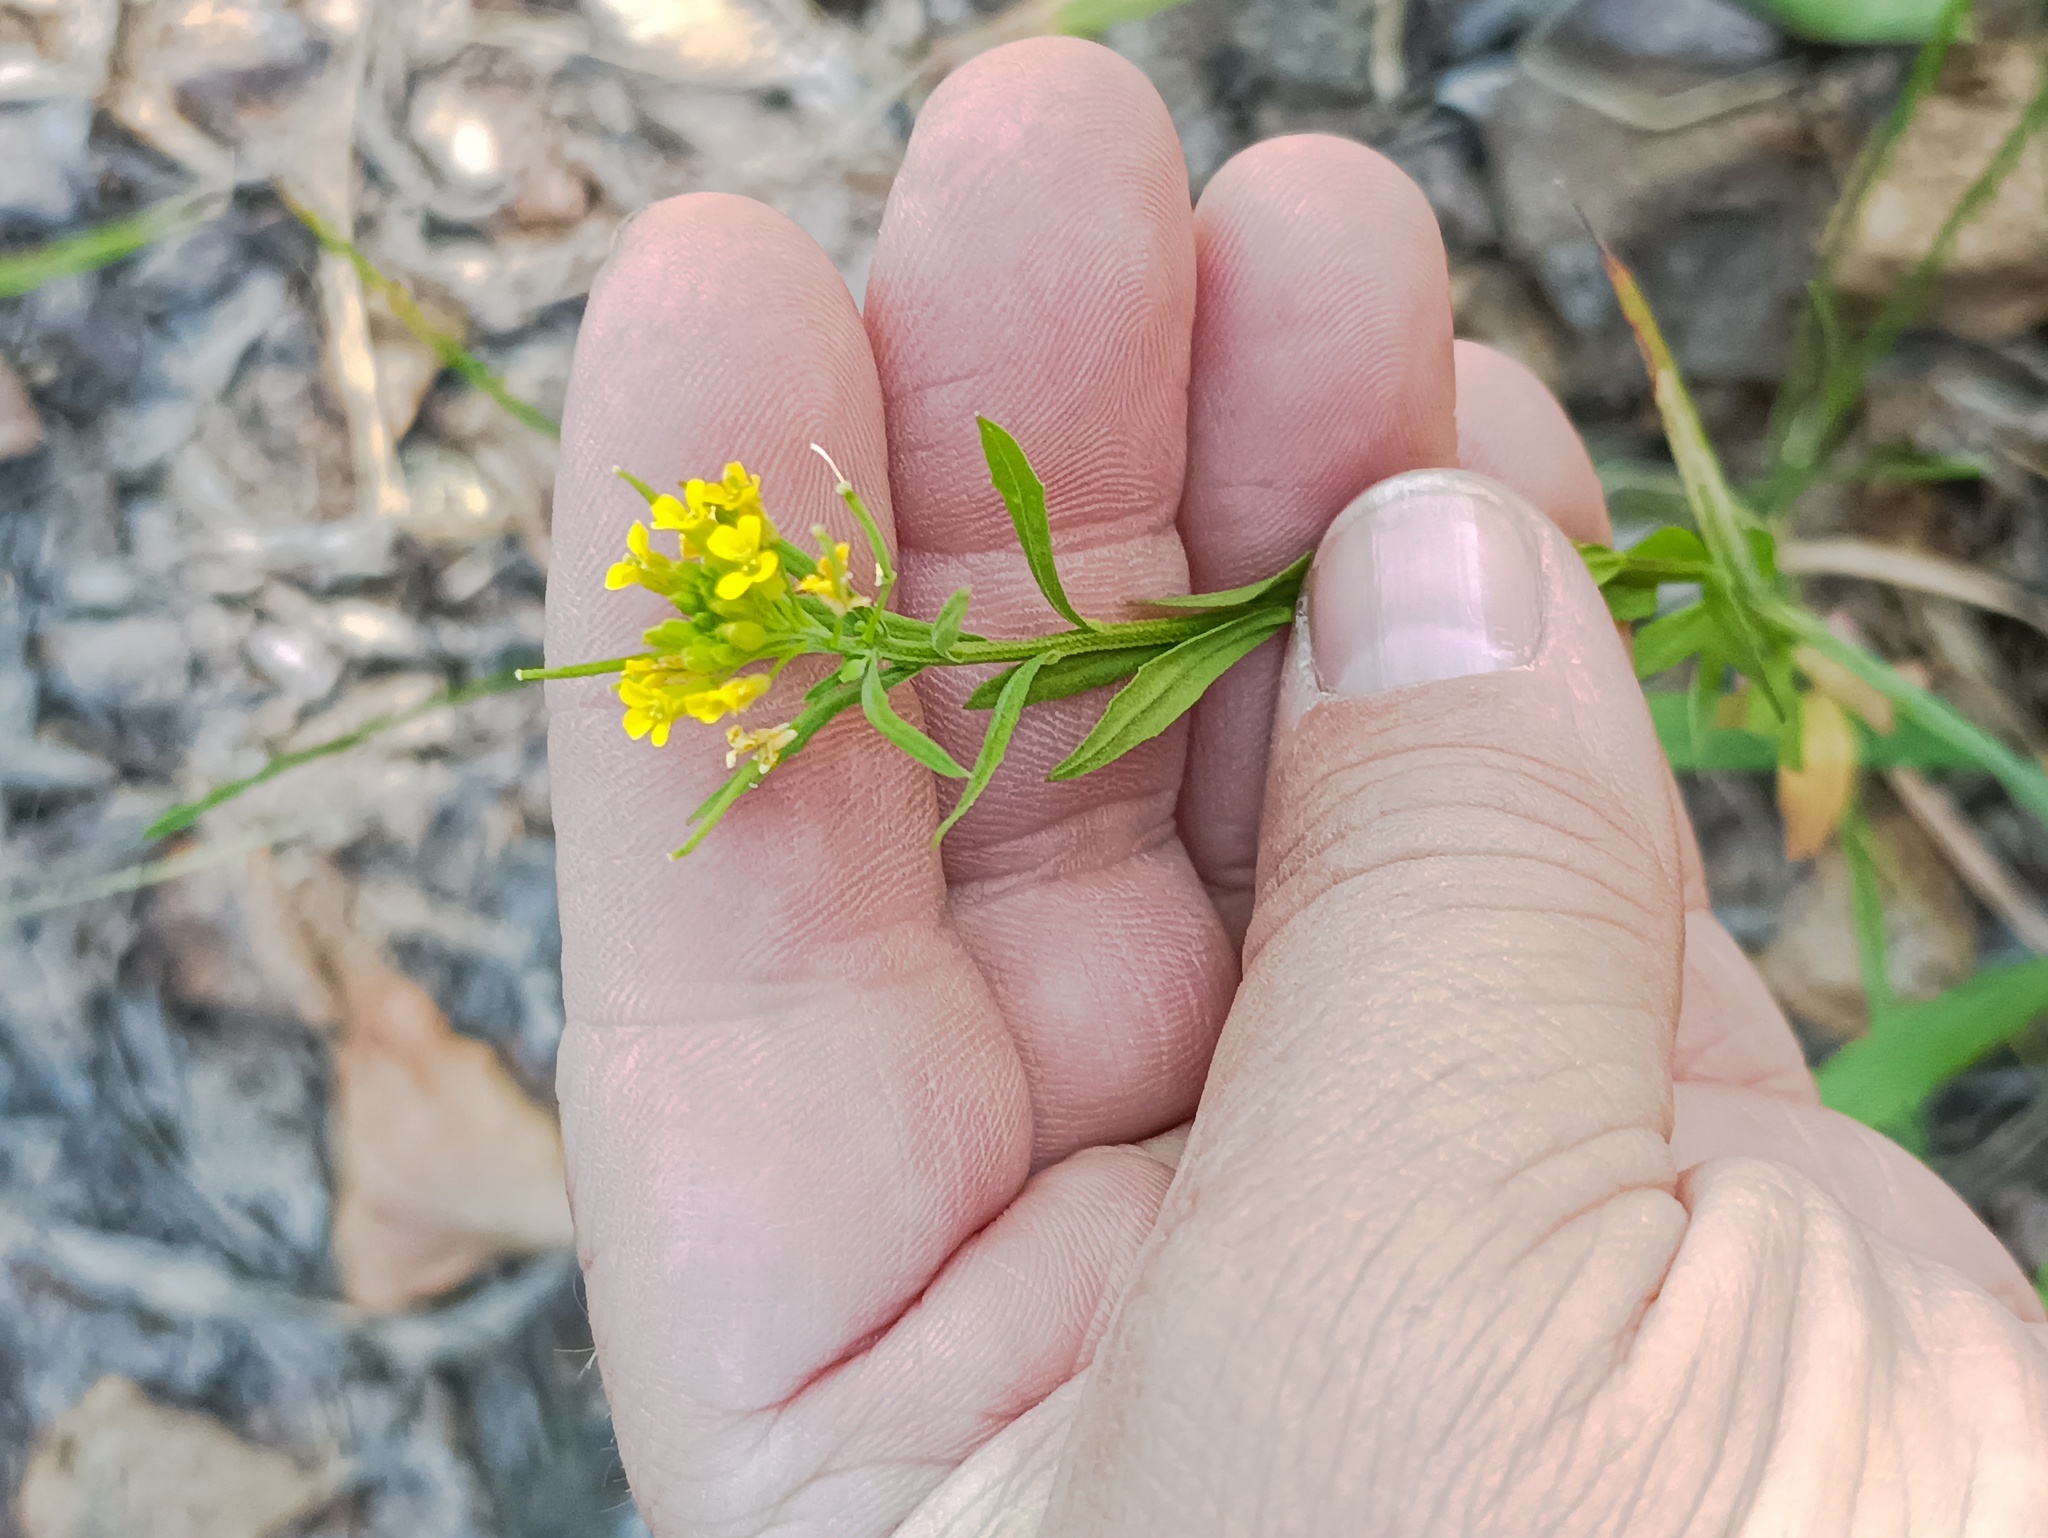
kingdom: Plantae
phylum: Tracheophyta
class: Magnoliopsida
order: Brassicales
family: Brassicaceae
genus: Erysimum
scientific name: Erysimum cheiranthoides
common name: Treacle mustard
